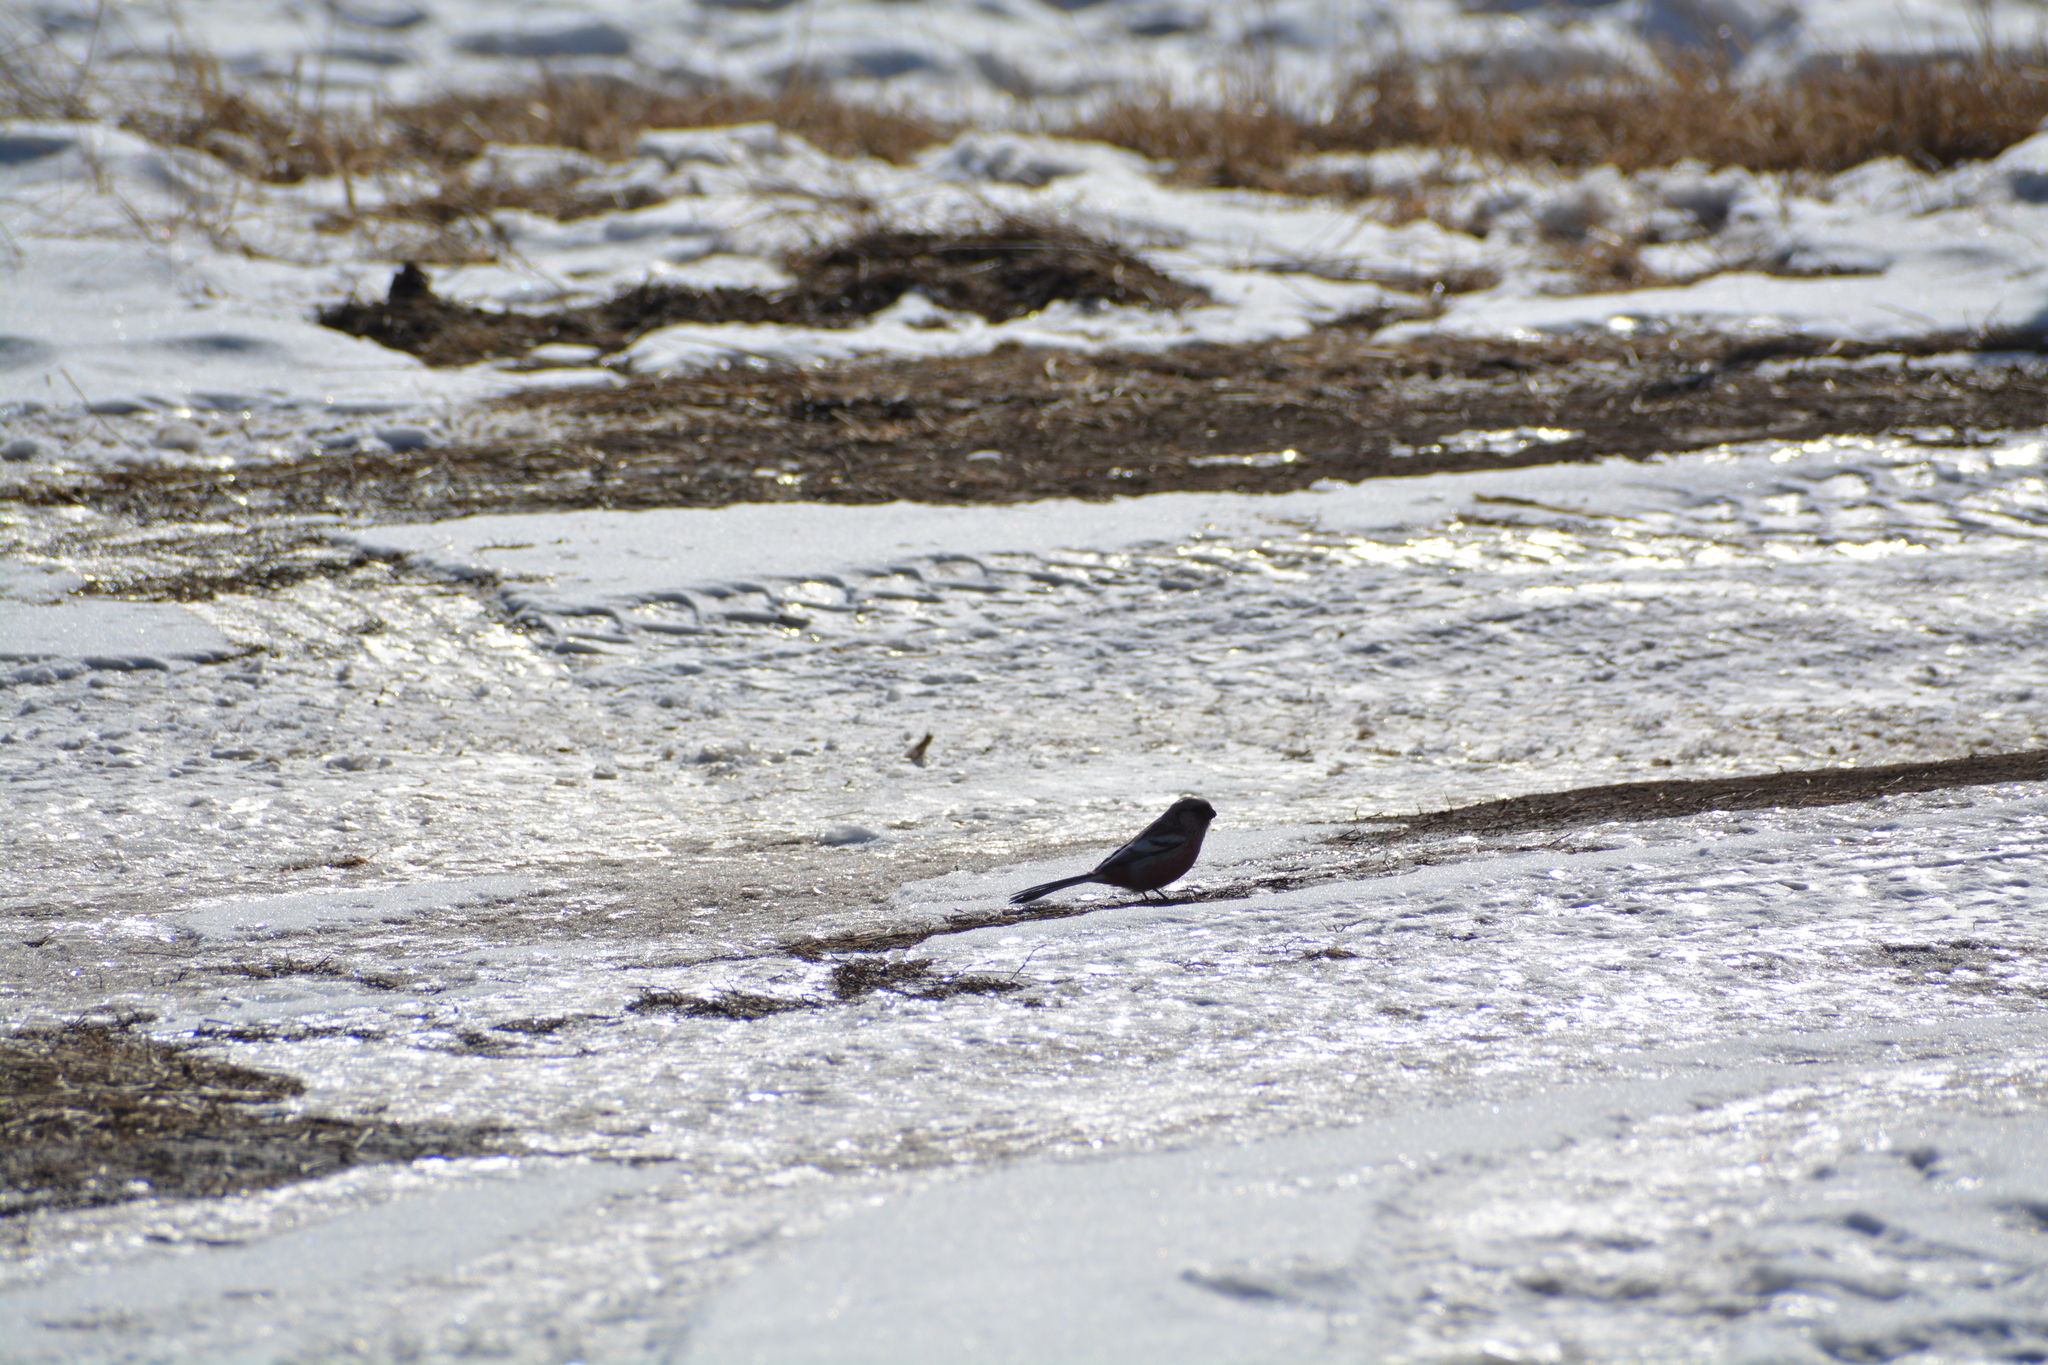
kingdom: Animalia
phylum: Chordata
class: Aves
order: Passeriformes
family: Fringillidae
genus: Carpodacus
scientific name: Carpodacus sibiricus
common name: Long-tailed rosefinch
